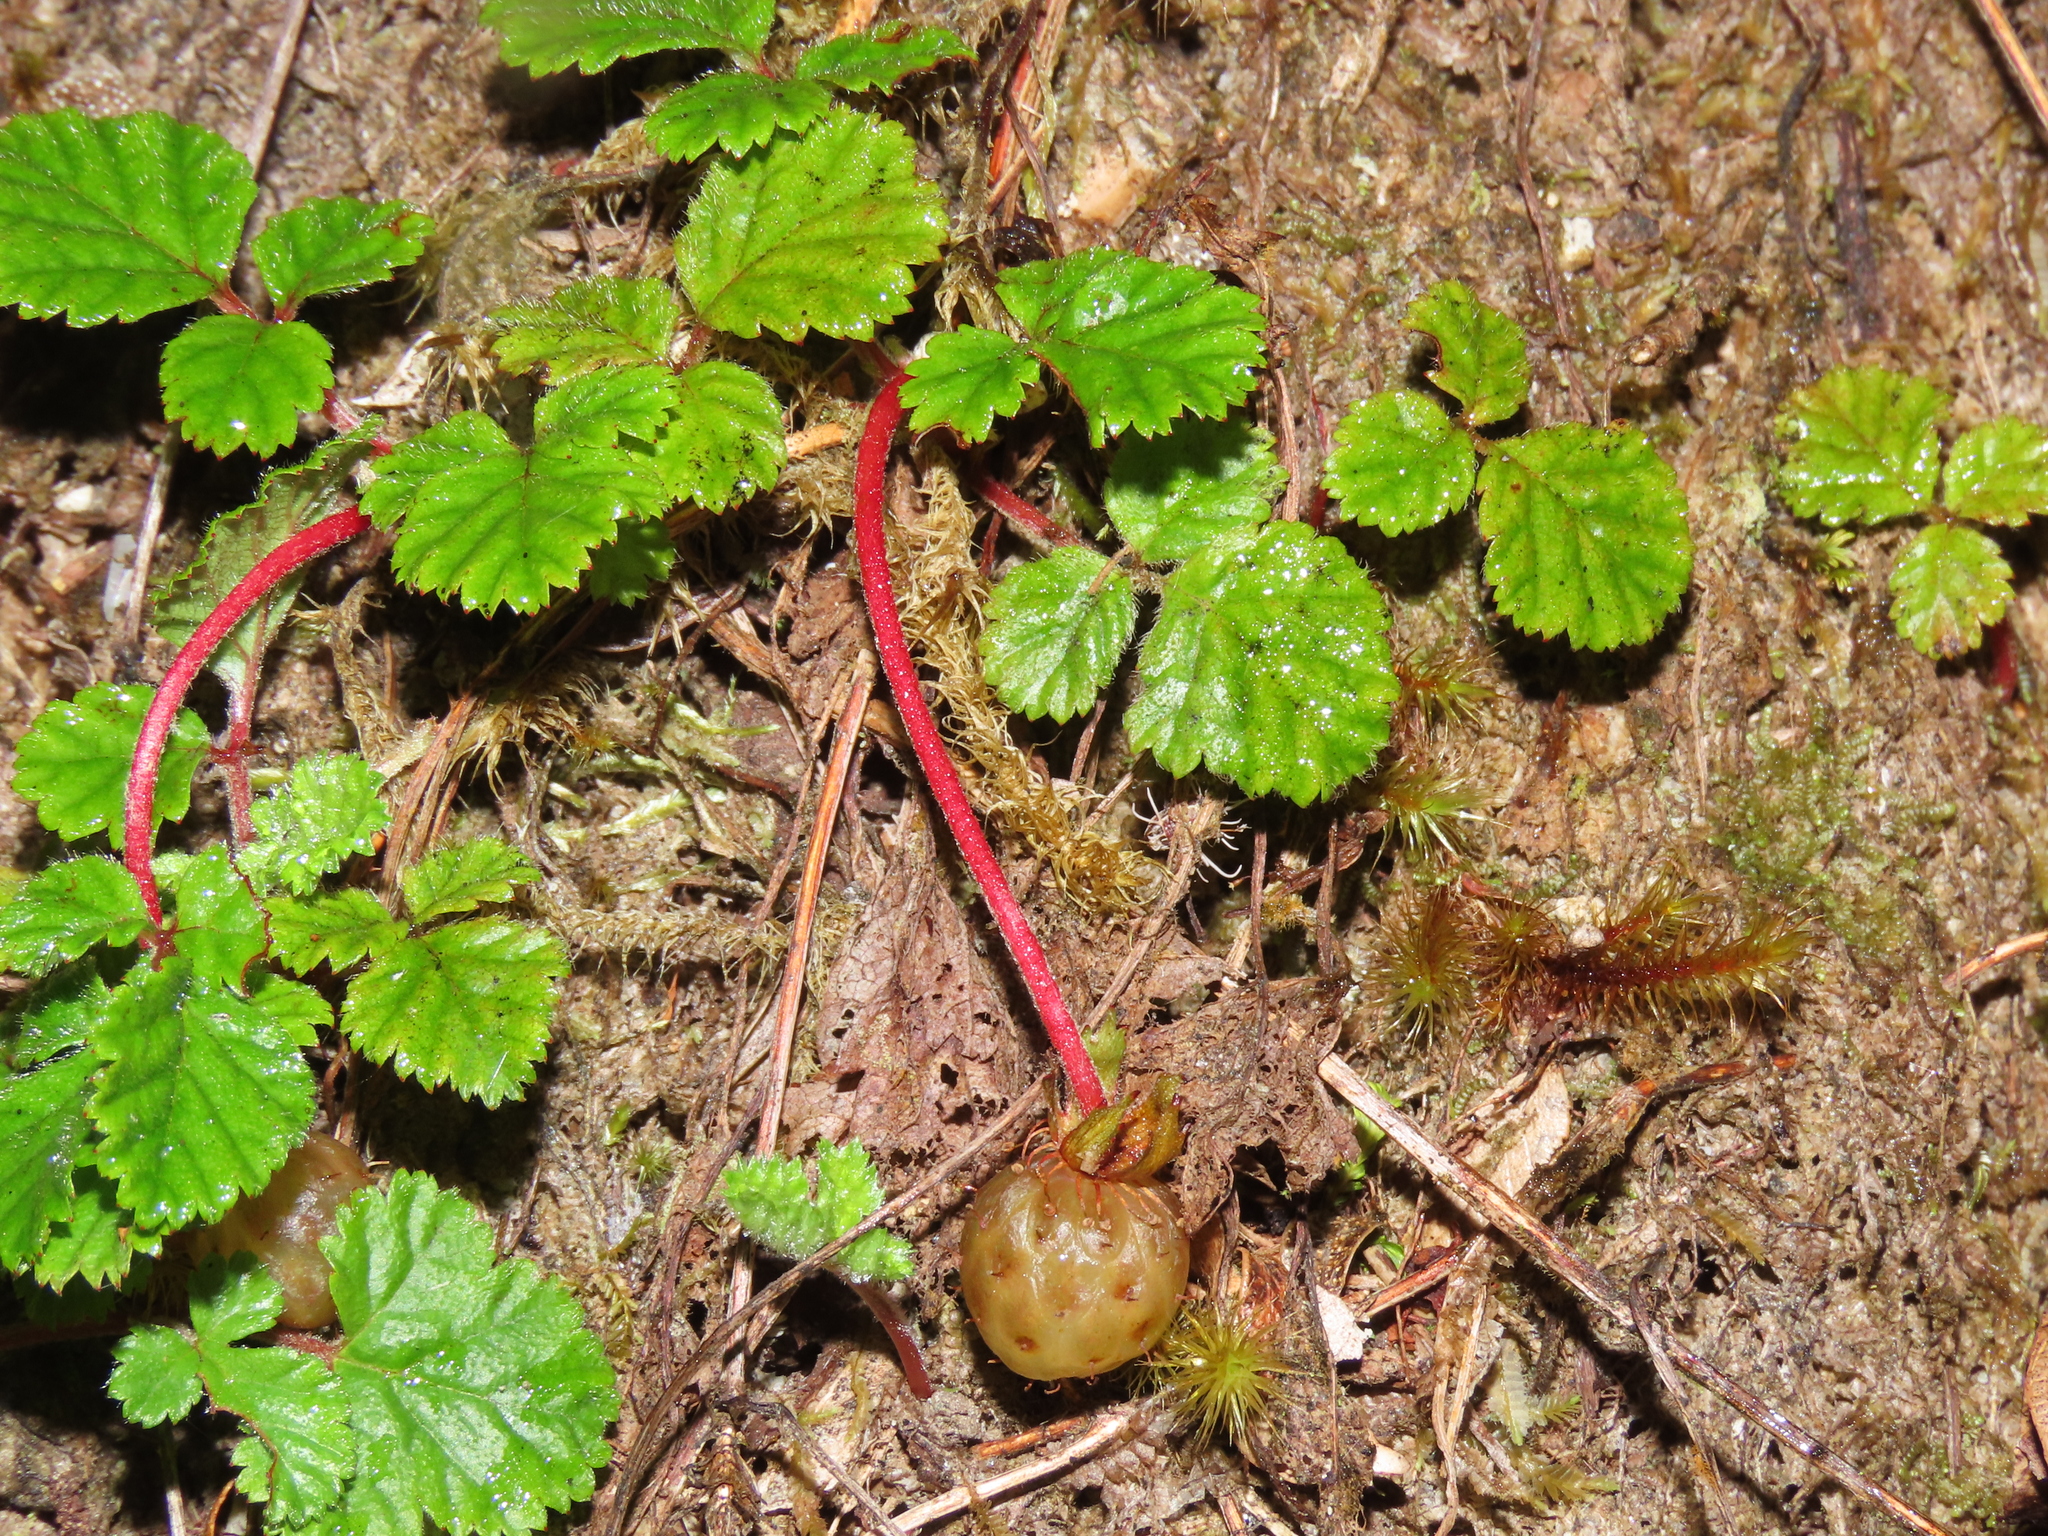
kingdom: Plantae
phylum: Tracheophyta
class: Magnoliopsida
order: Rosales
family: Rosaceae
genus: Rubus
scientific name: Rubus radicans
